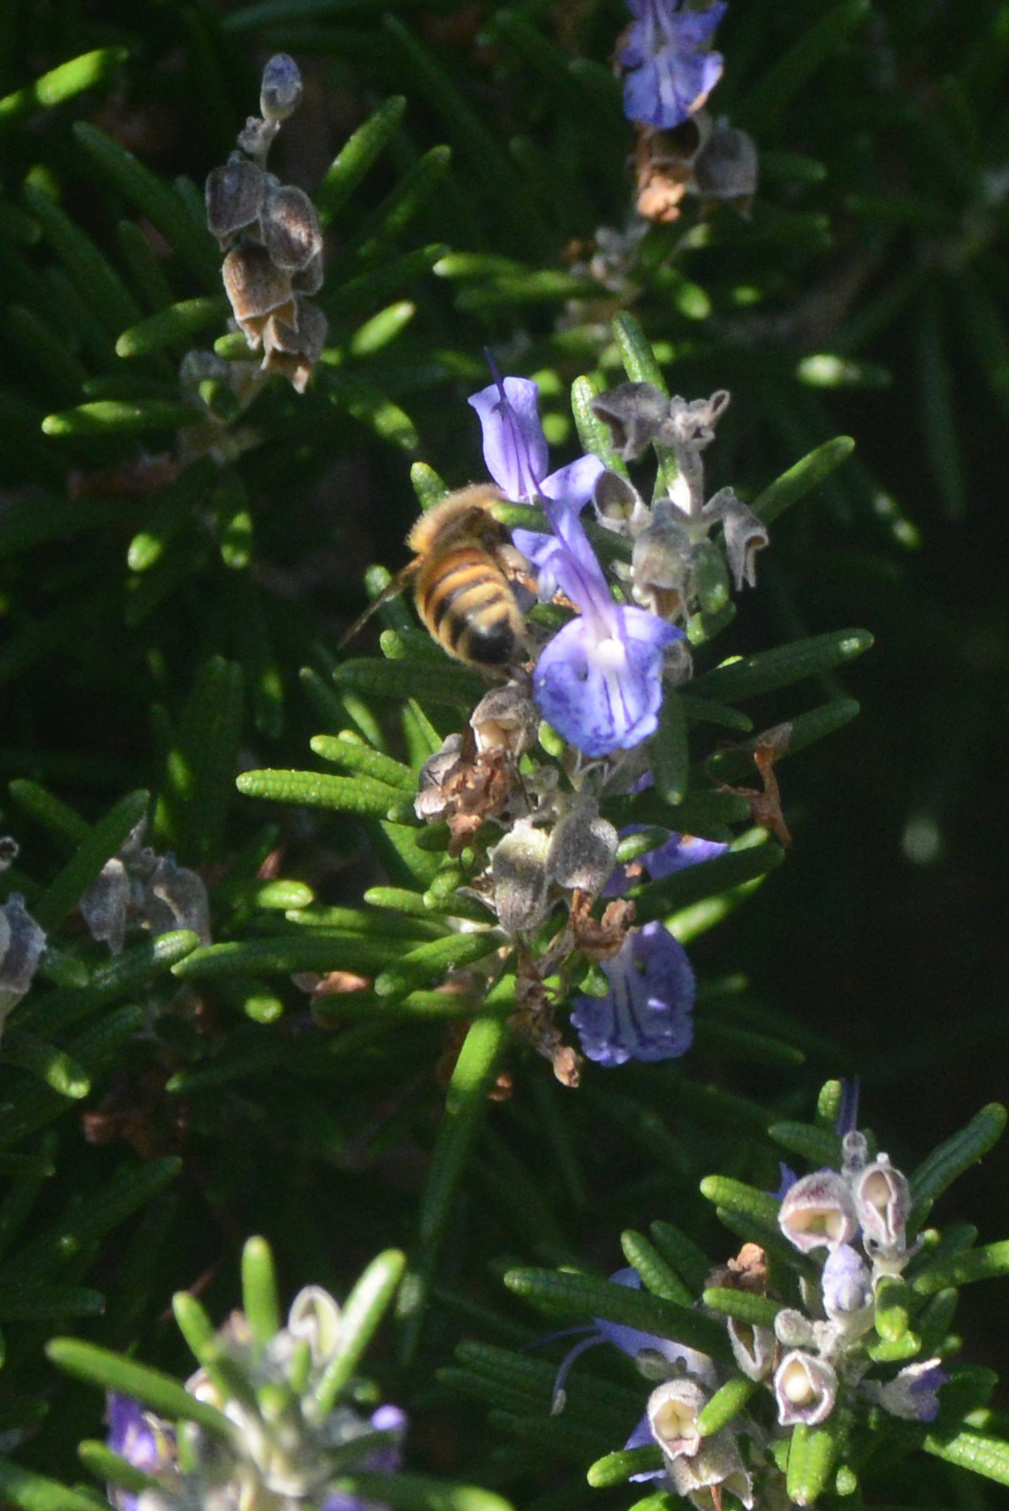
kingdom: Animalia
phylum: Arthropoda
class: Insecta
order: Hymenoptera
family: Apidae
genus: Apis
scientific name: Apis mellifera
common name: Honey bee
